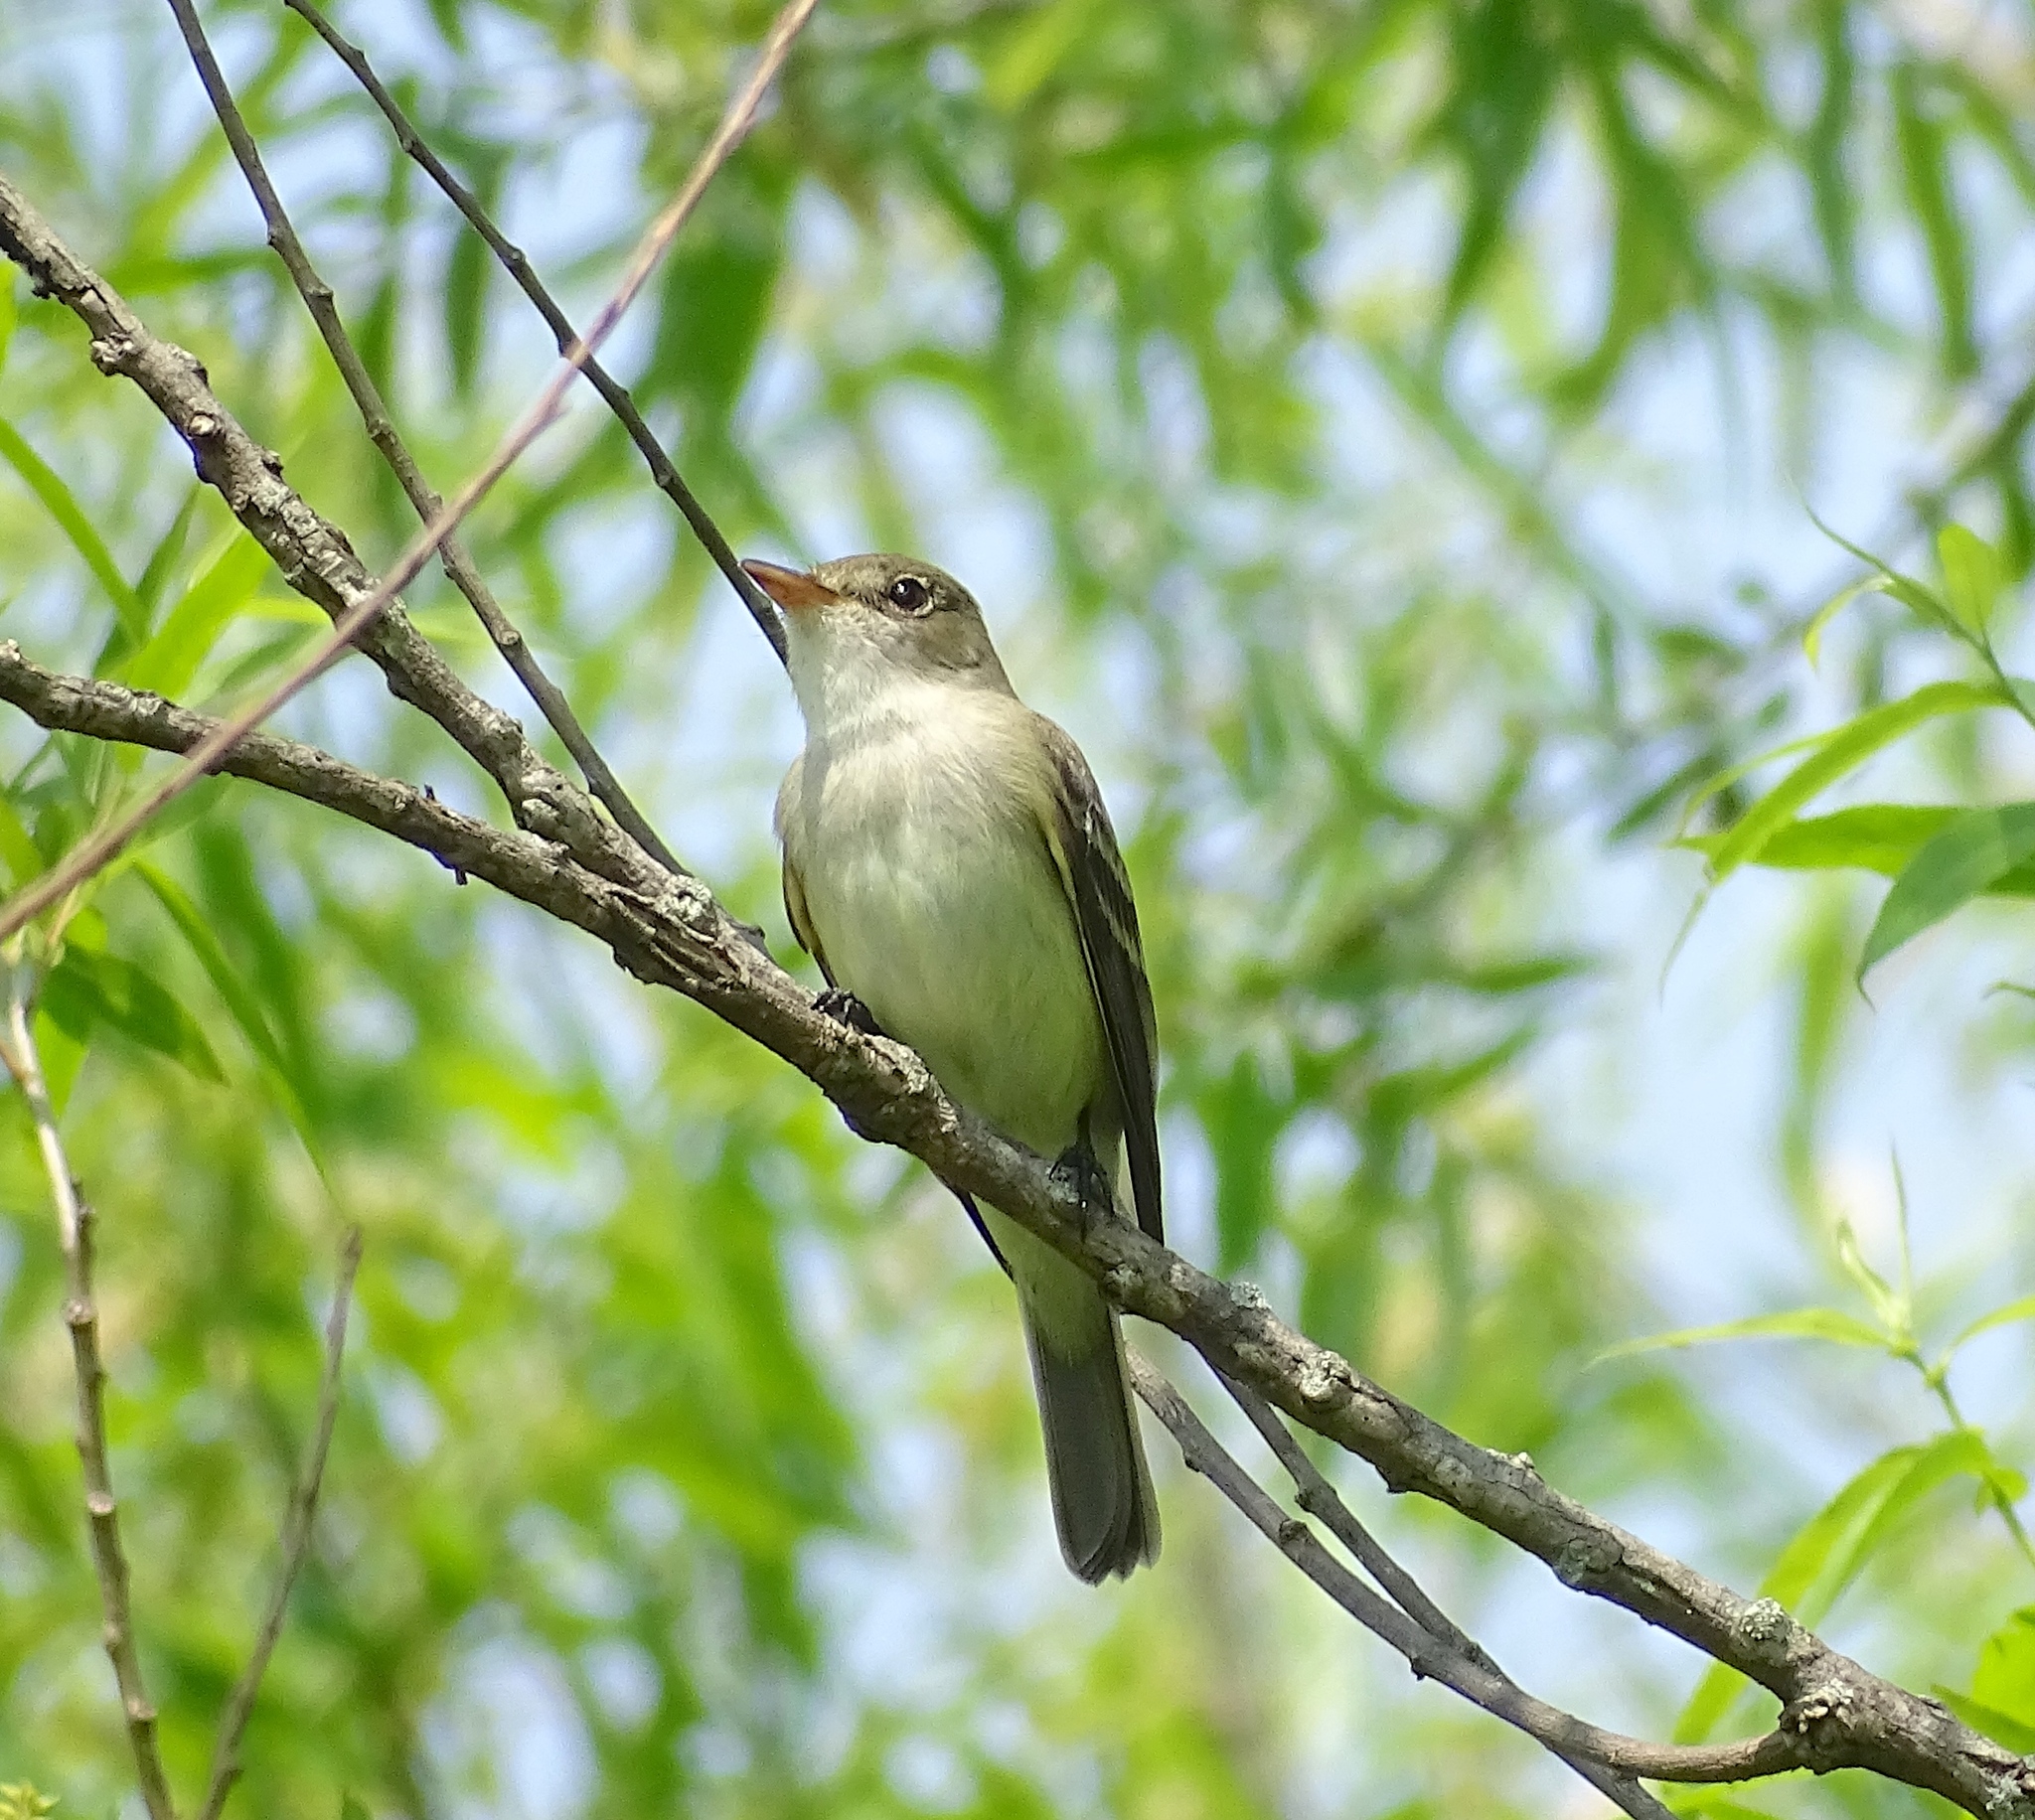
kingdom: Animalia
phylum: Chordata
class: Aves
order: Passeriformes
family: Tyrannidae
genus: Empidonax
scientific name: Empidonax traillii
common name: Willow flycatcher
